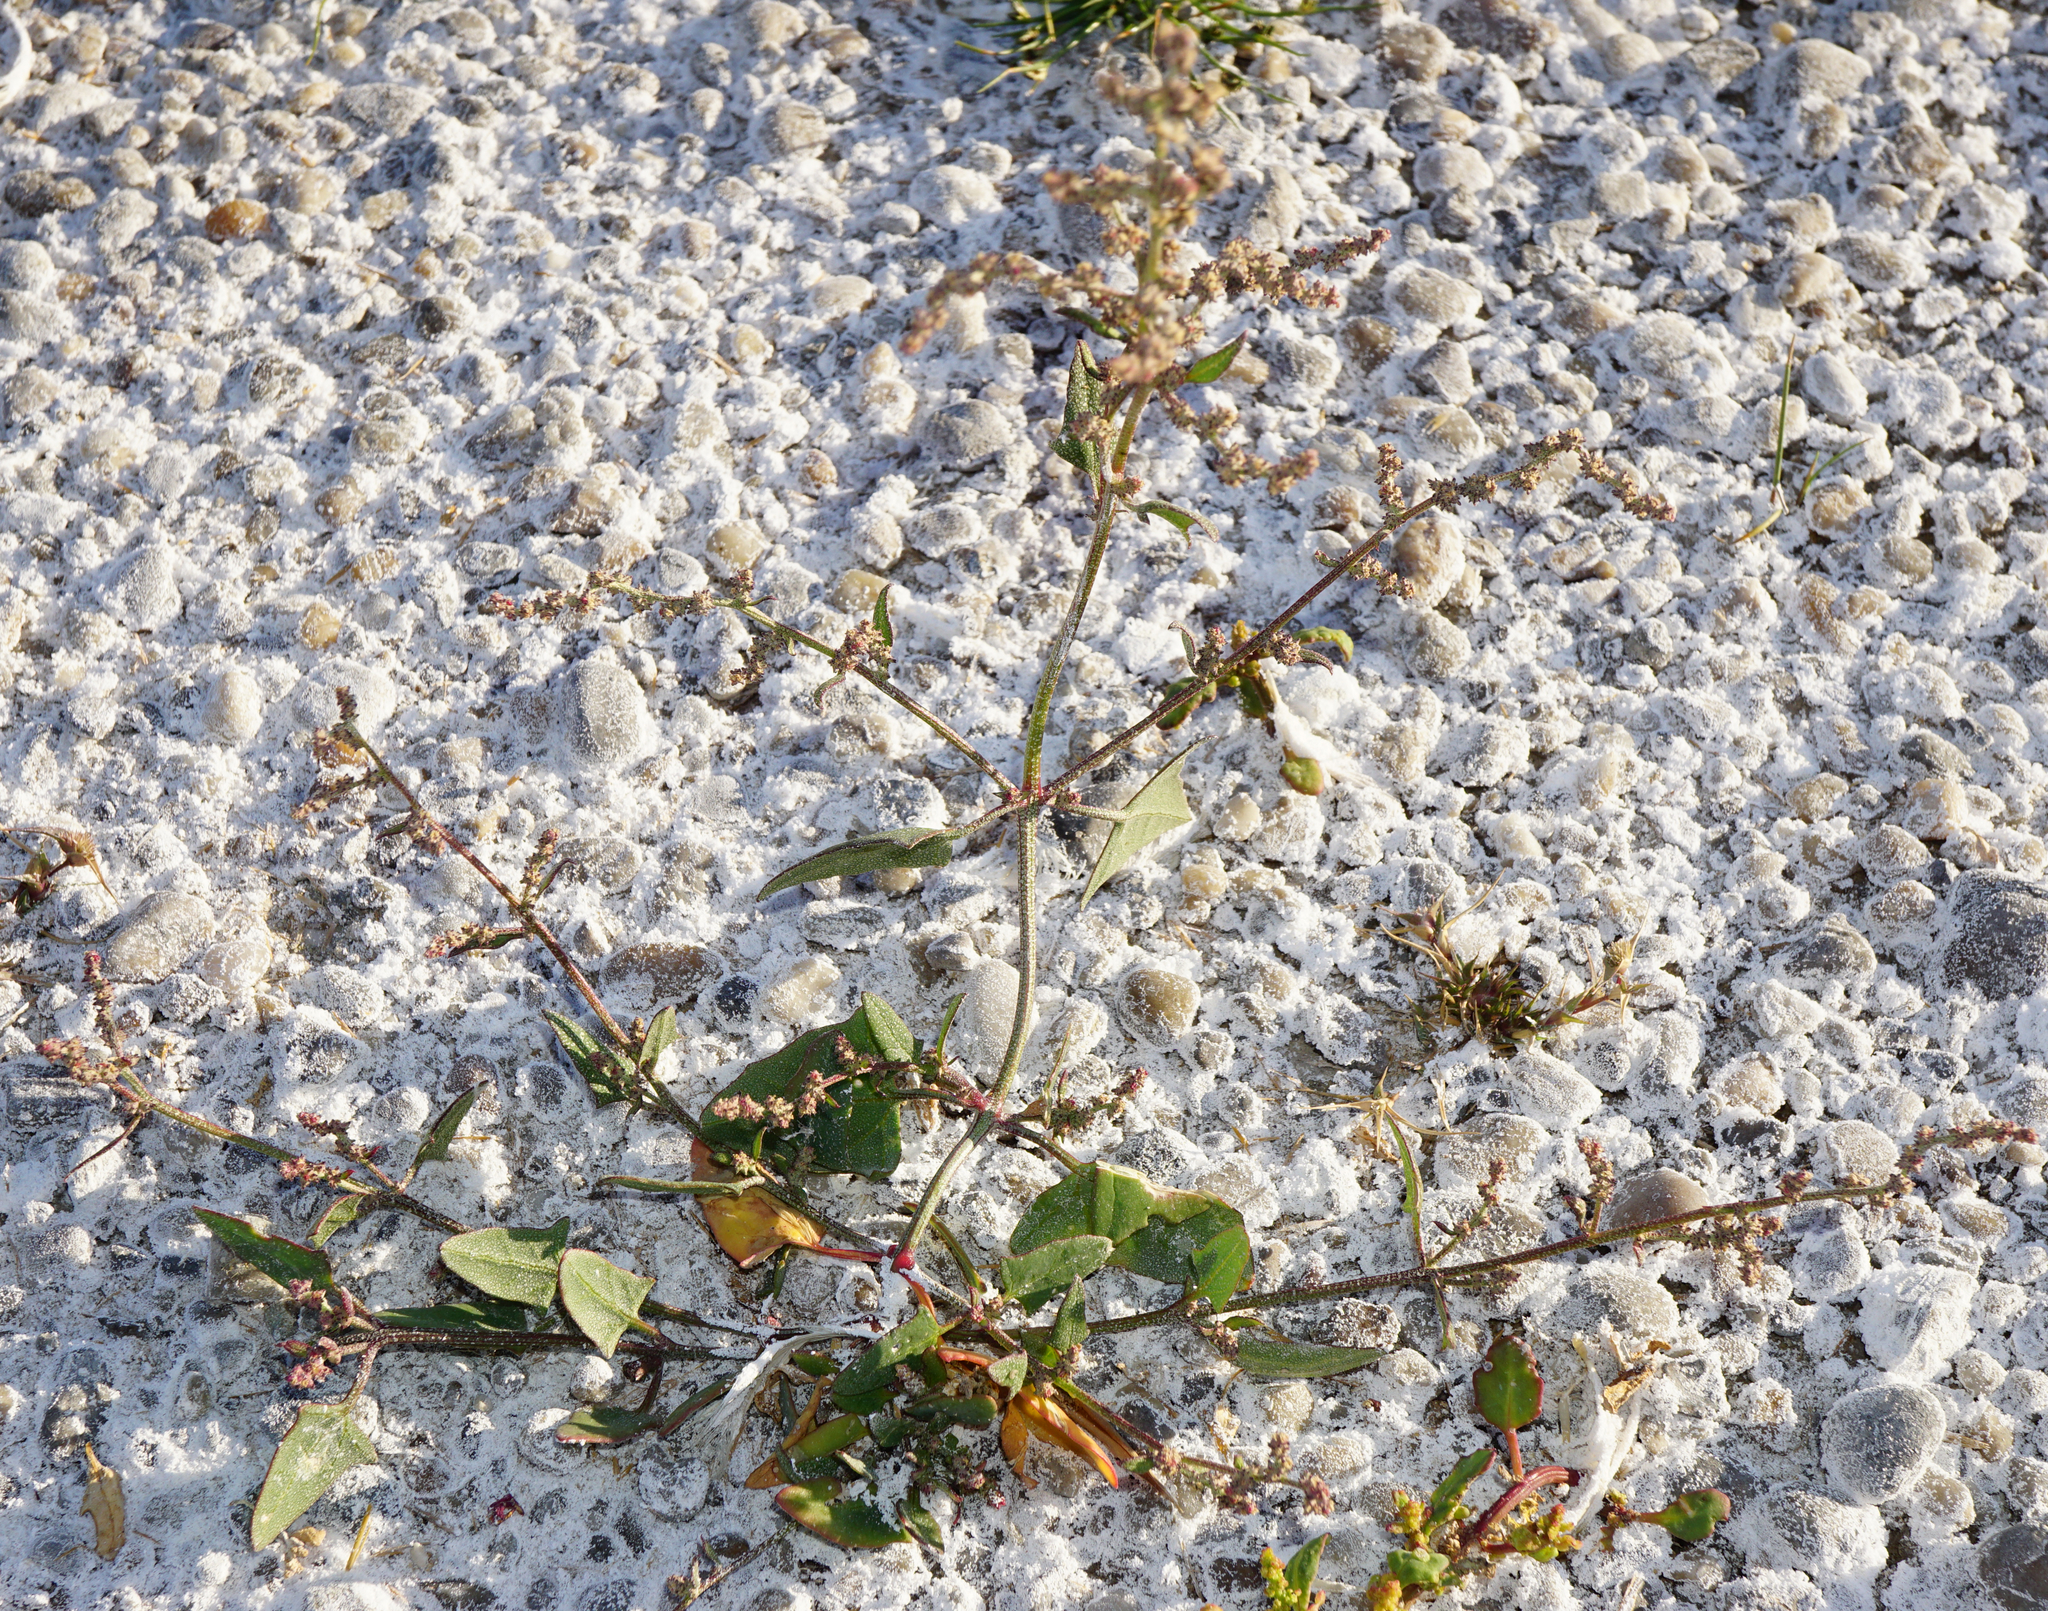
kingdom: Plantae
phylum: Tracheophyta
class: Magnoliopsida
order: Caryophyllales
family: Amaranthaceae
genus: Atriplex
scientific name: Atriplex prostrata
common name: Spear-leaved orache
